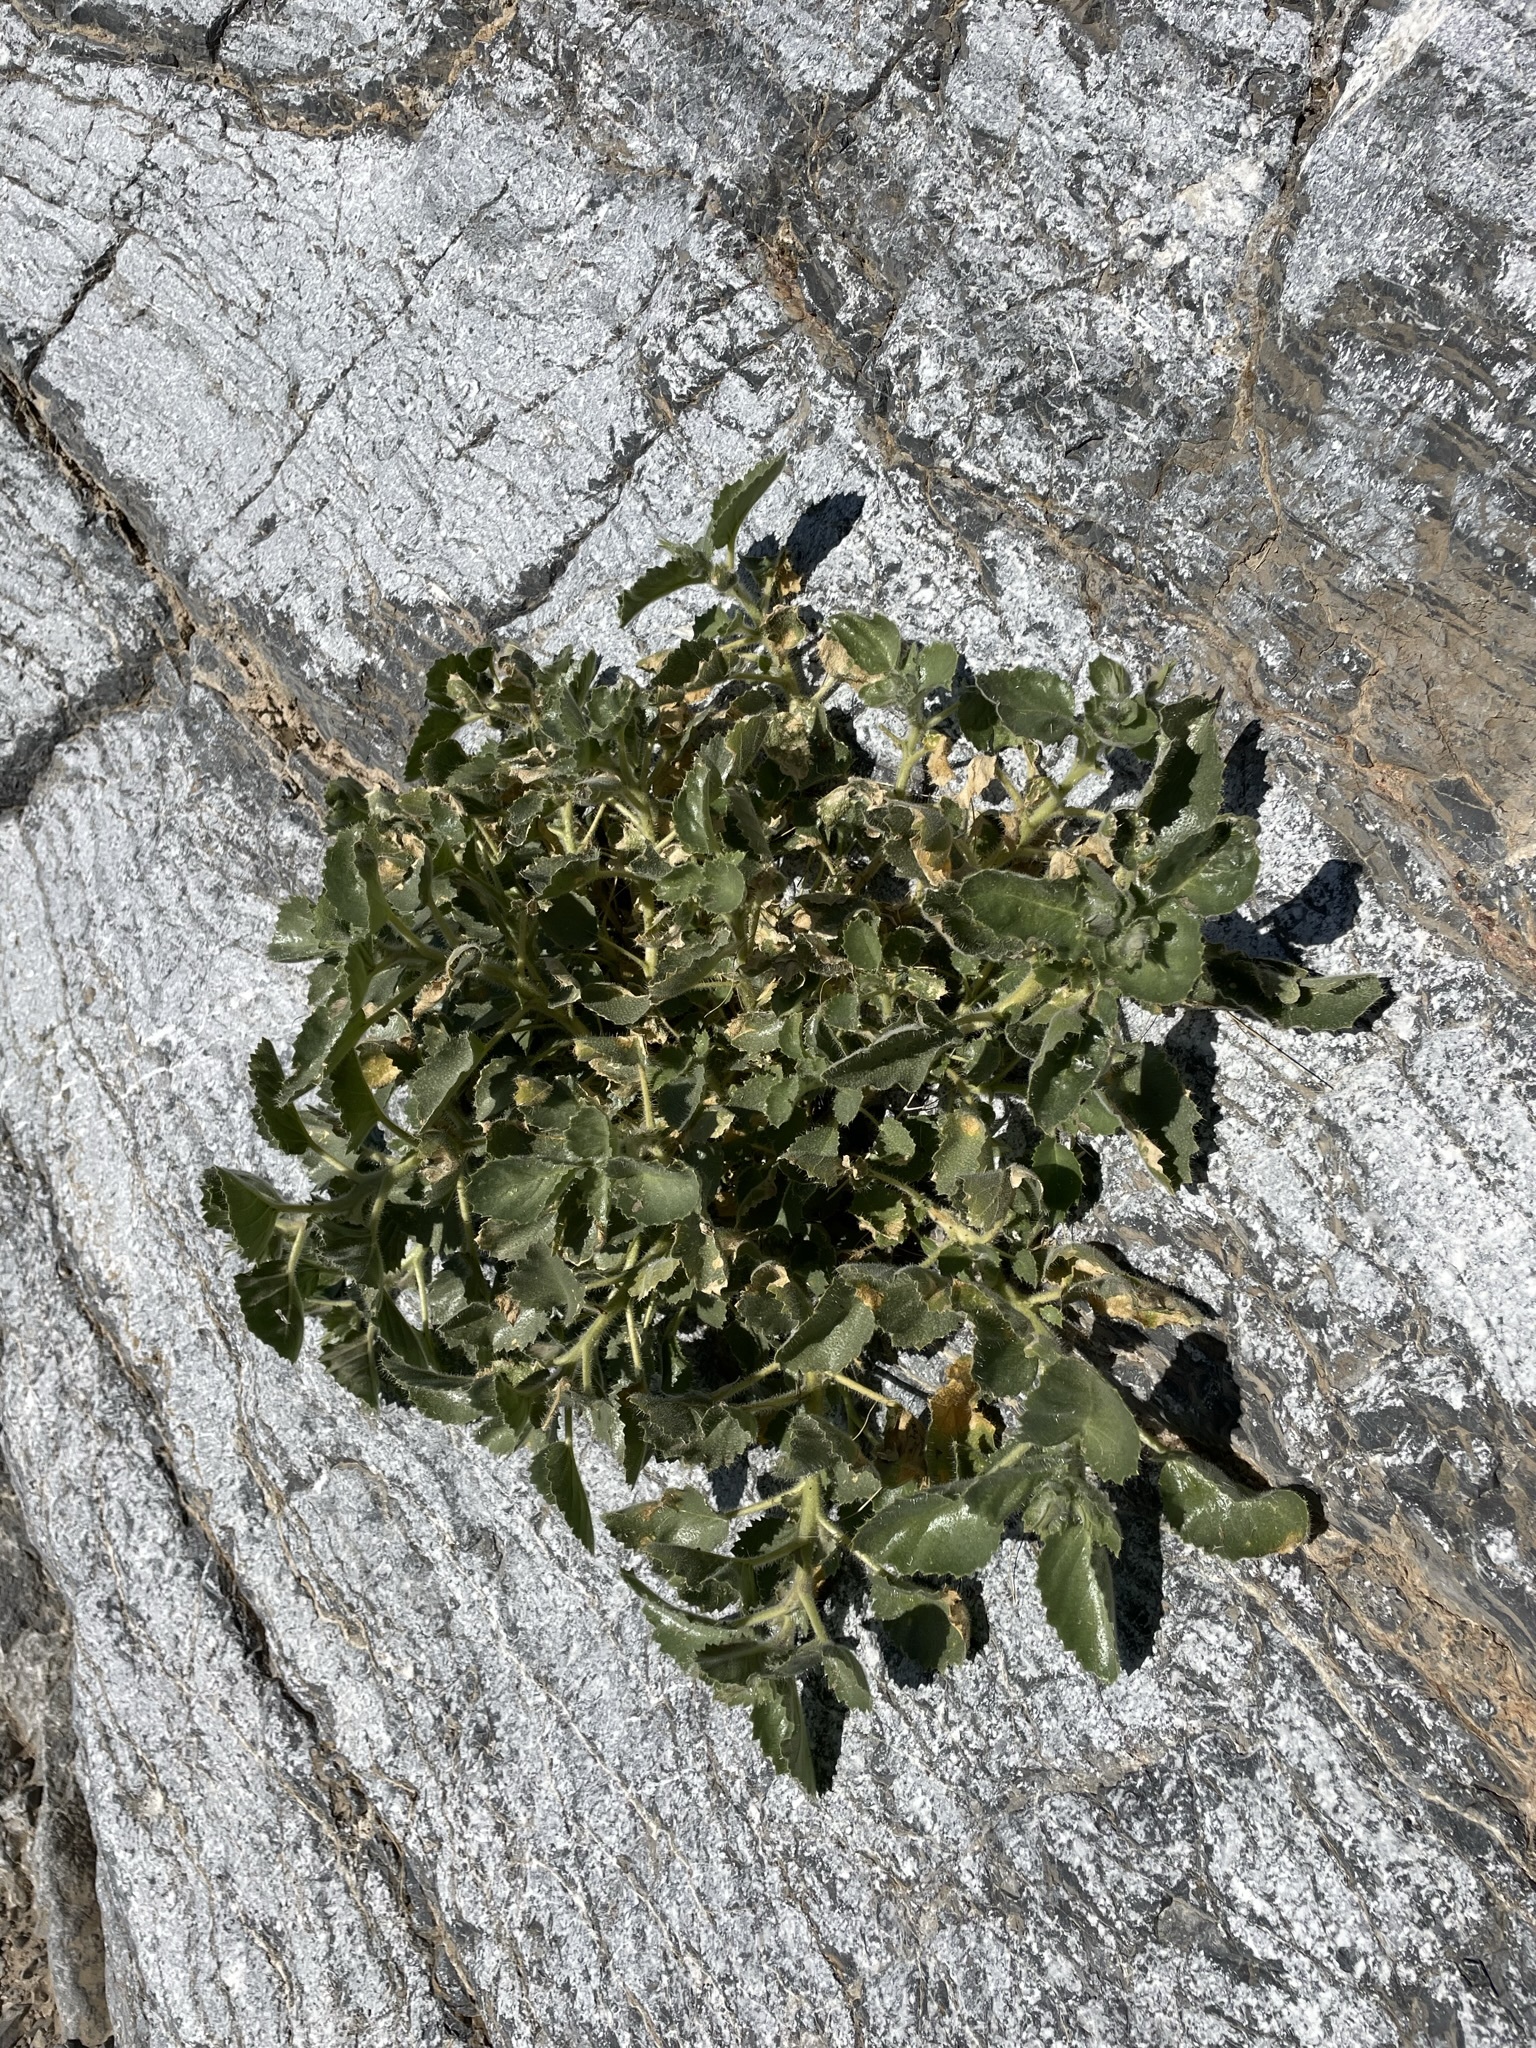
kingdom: Plantae
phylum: Tracheophyta
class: Magnoliopsida
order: Cornales
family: Loasaceae
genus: Eucnide
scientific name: Eucnide urens
